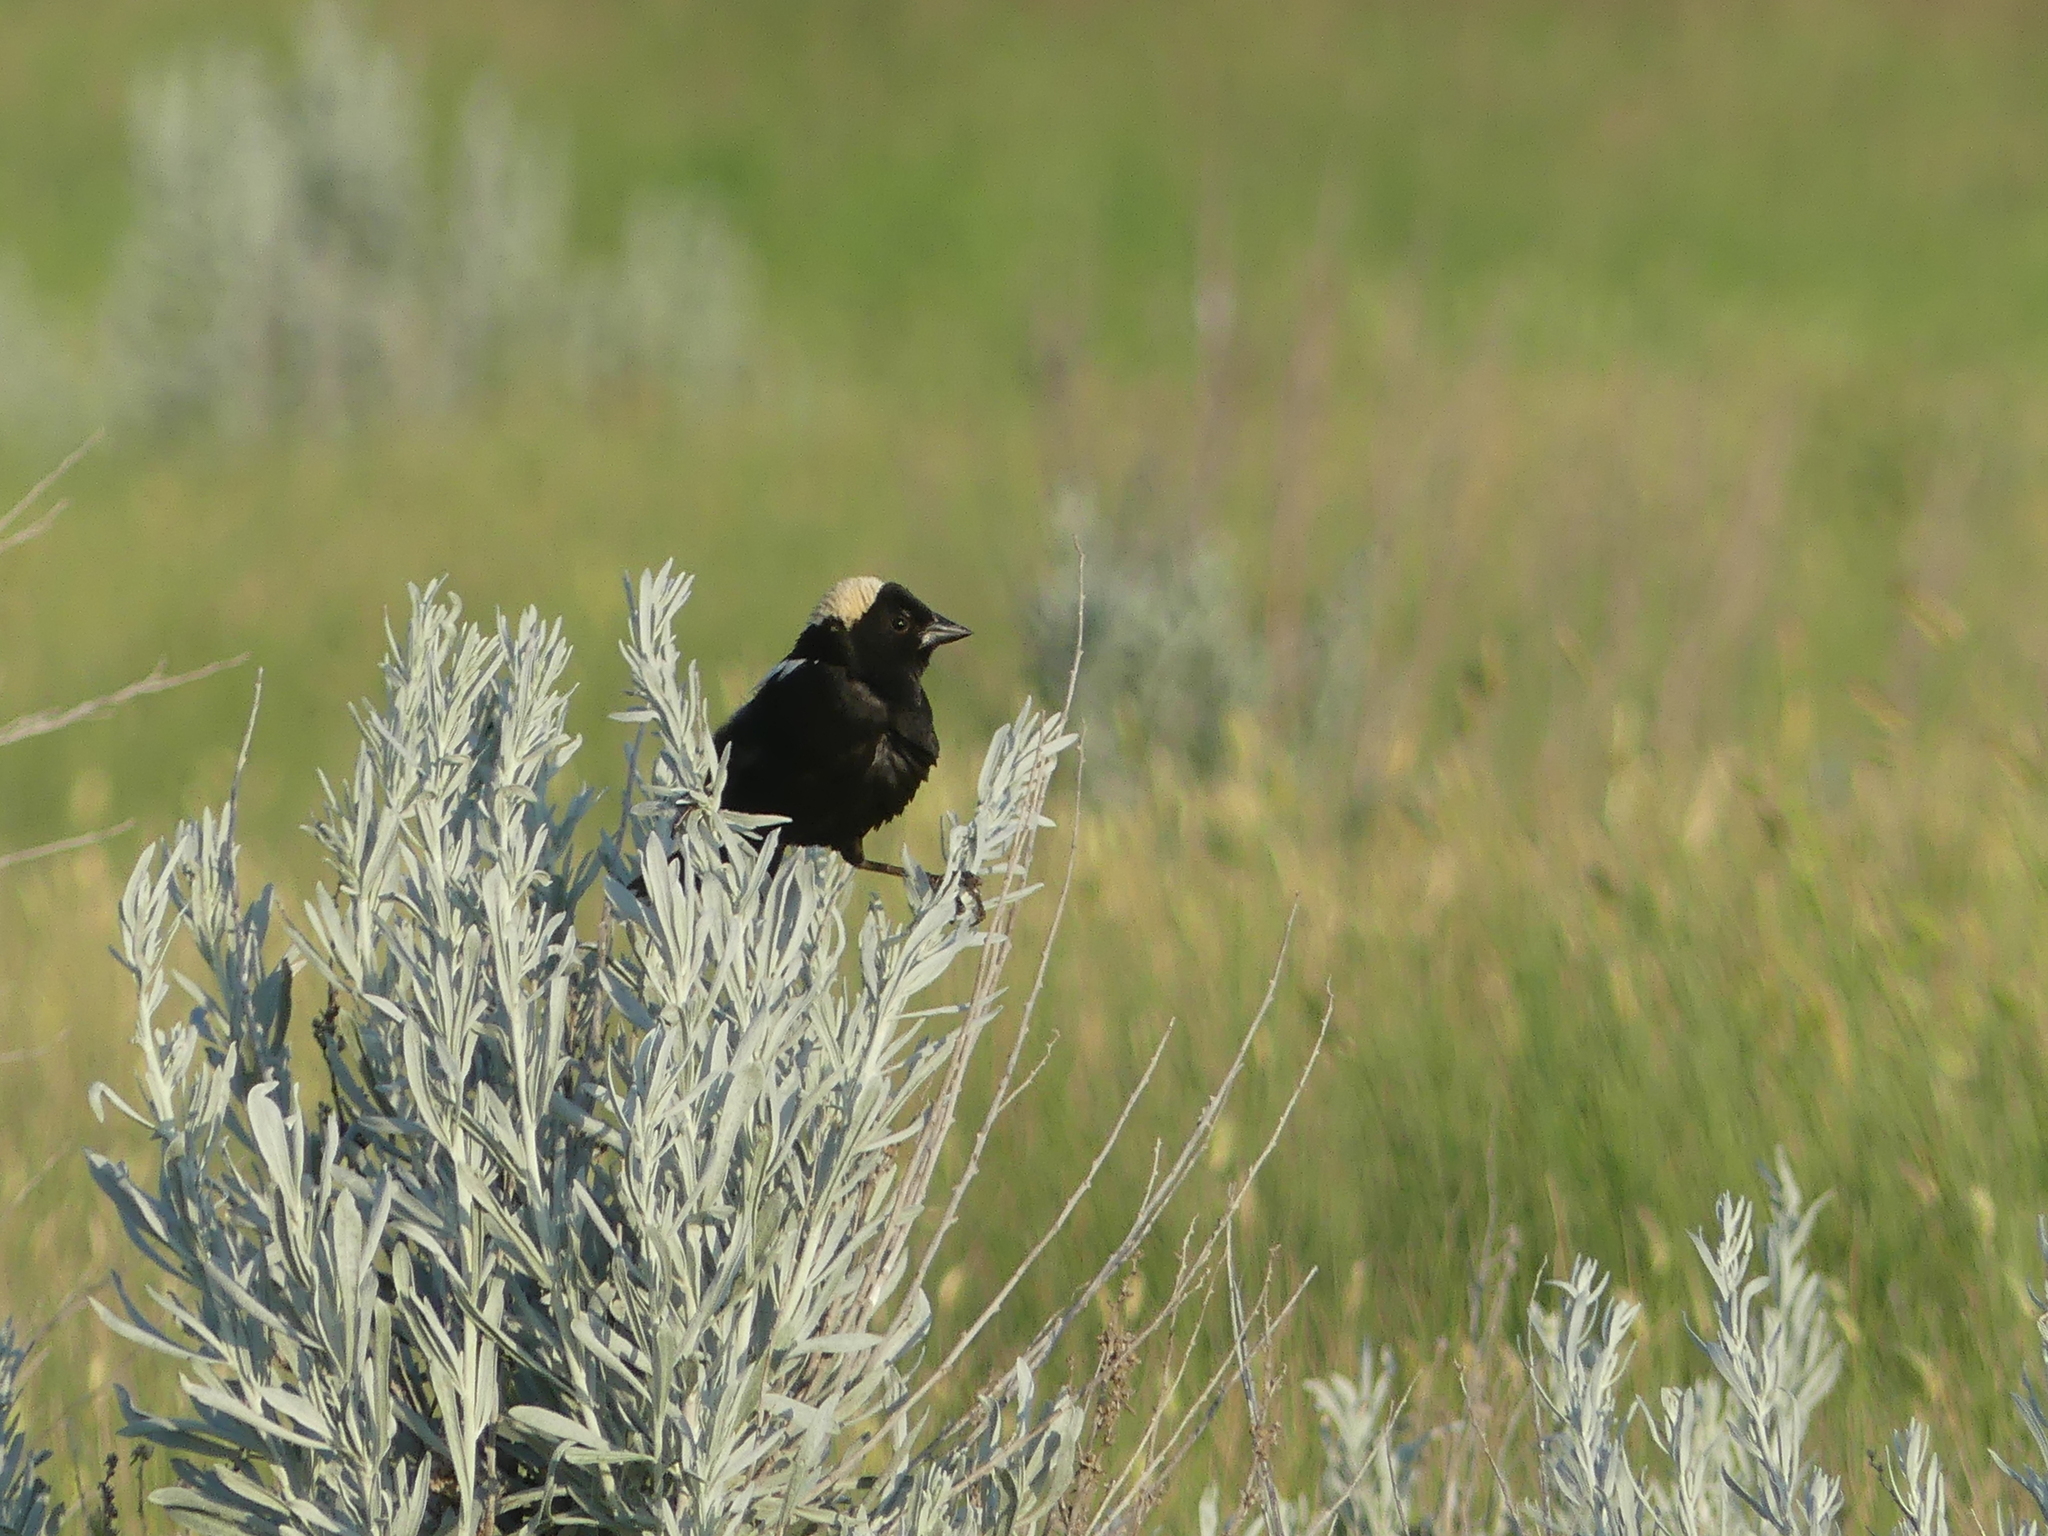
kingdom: Animalia
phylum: Chordata
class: Aves
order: Passeriformes
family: Icteridae
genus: Dolichonyx
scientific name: Dolichonyx oryzivorus
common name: Bobolink
